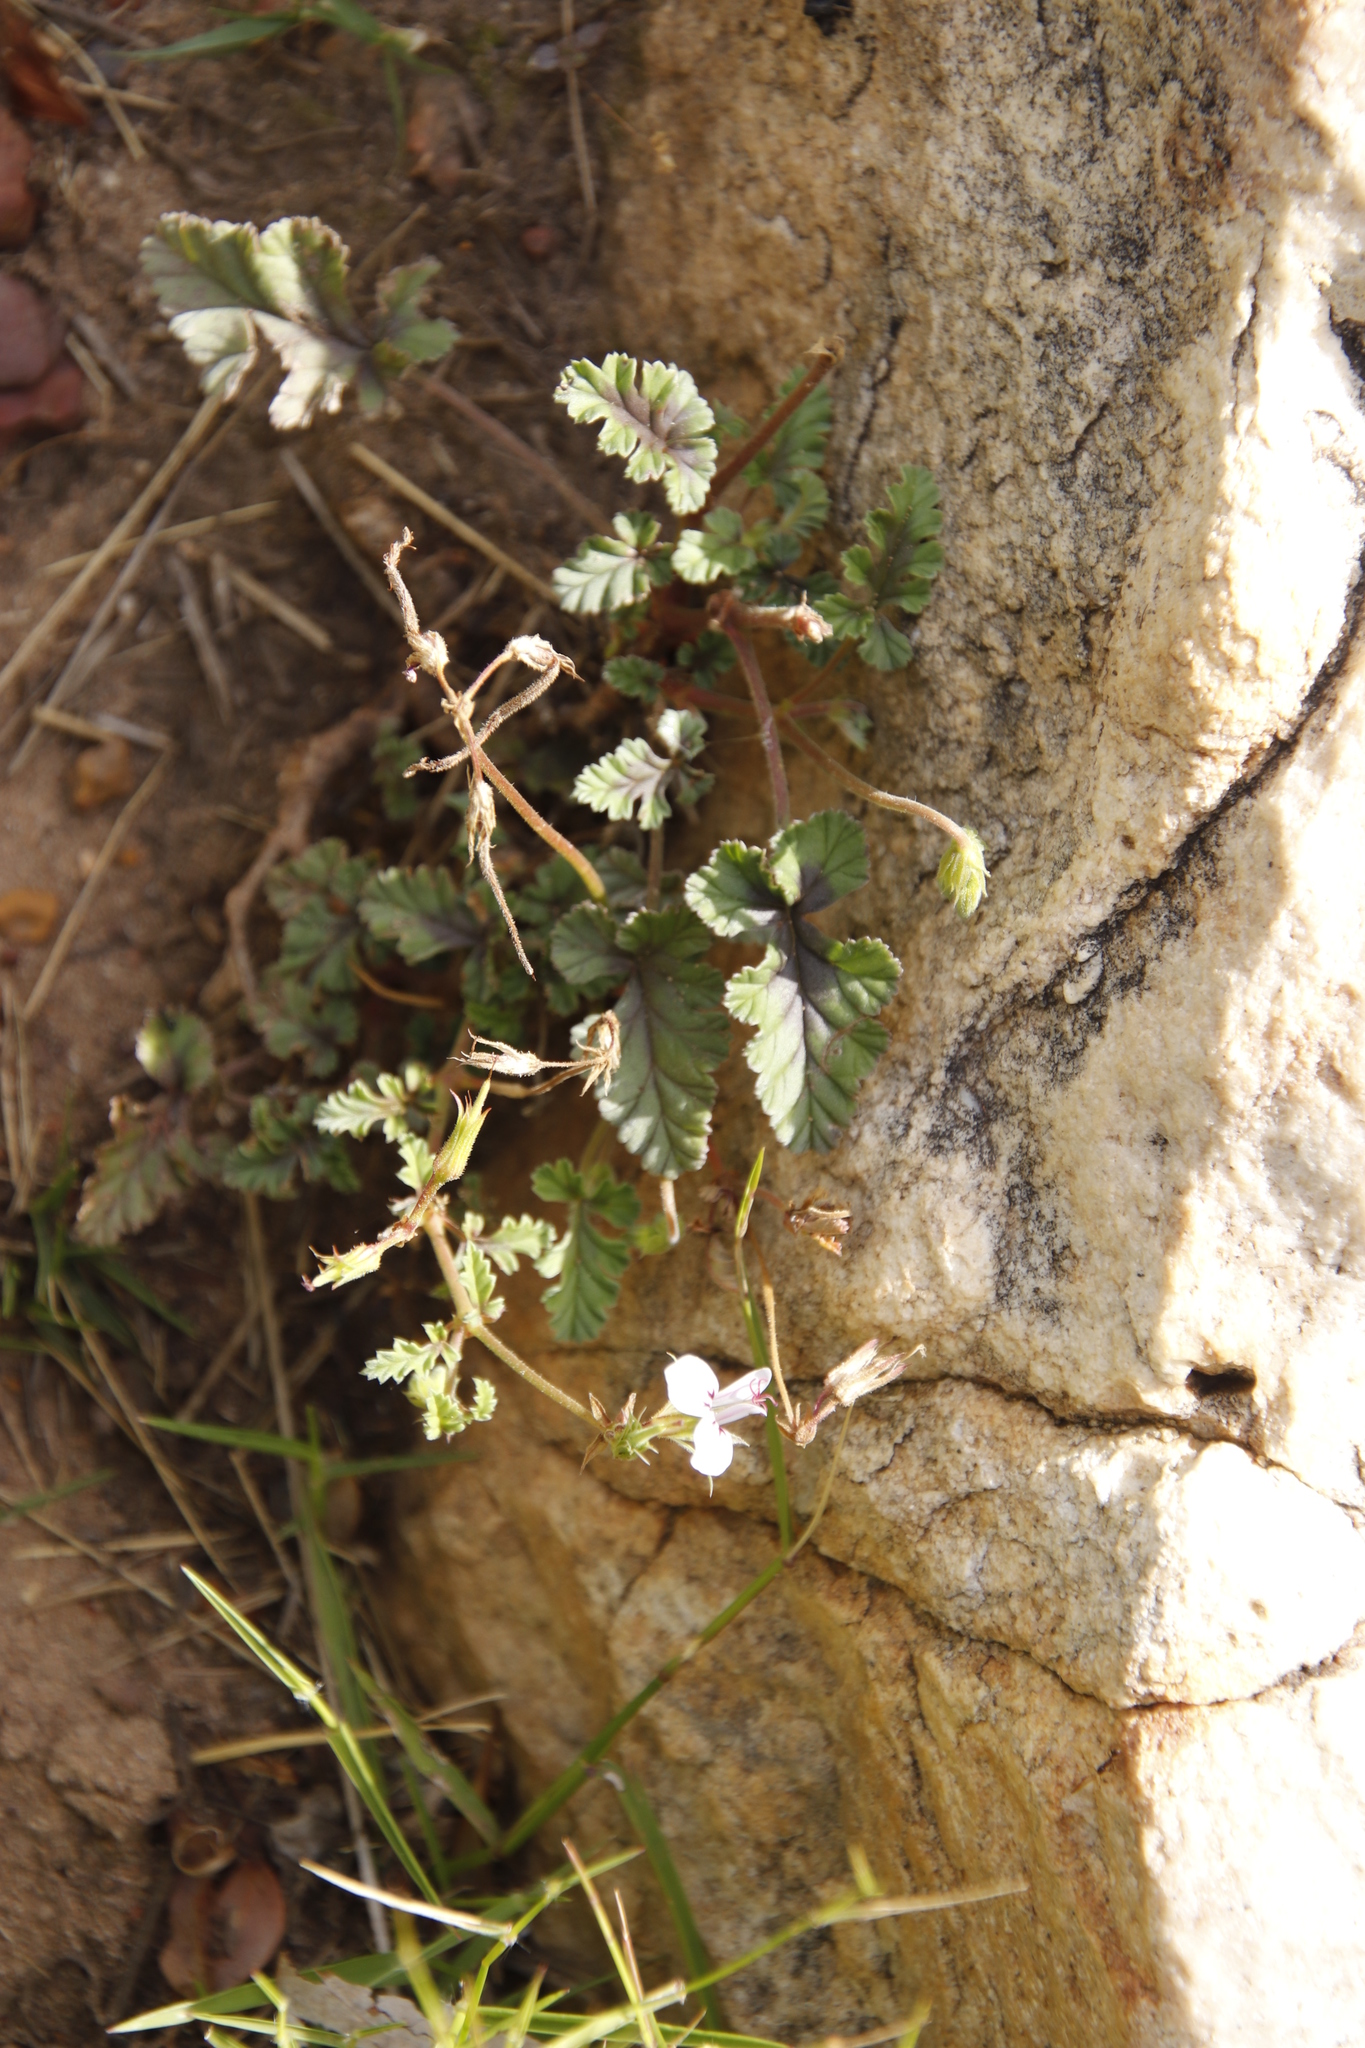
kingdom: Plantae
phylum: Tracheophyta
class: Magnoliopsida
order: Geraniales
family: Geraniaceae
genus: Pelargonium
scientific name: Pelargonium candicans
